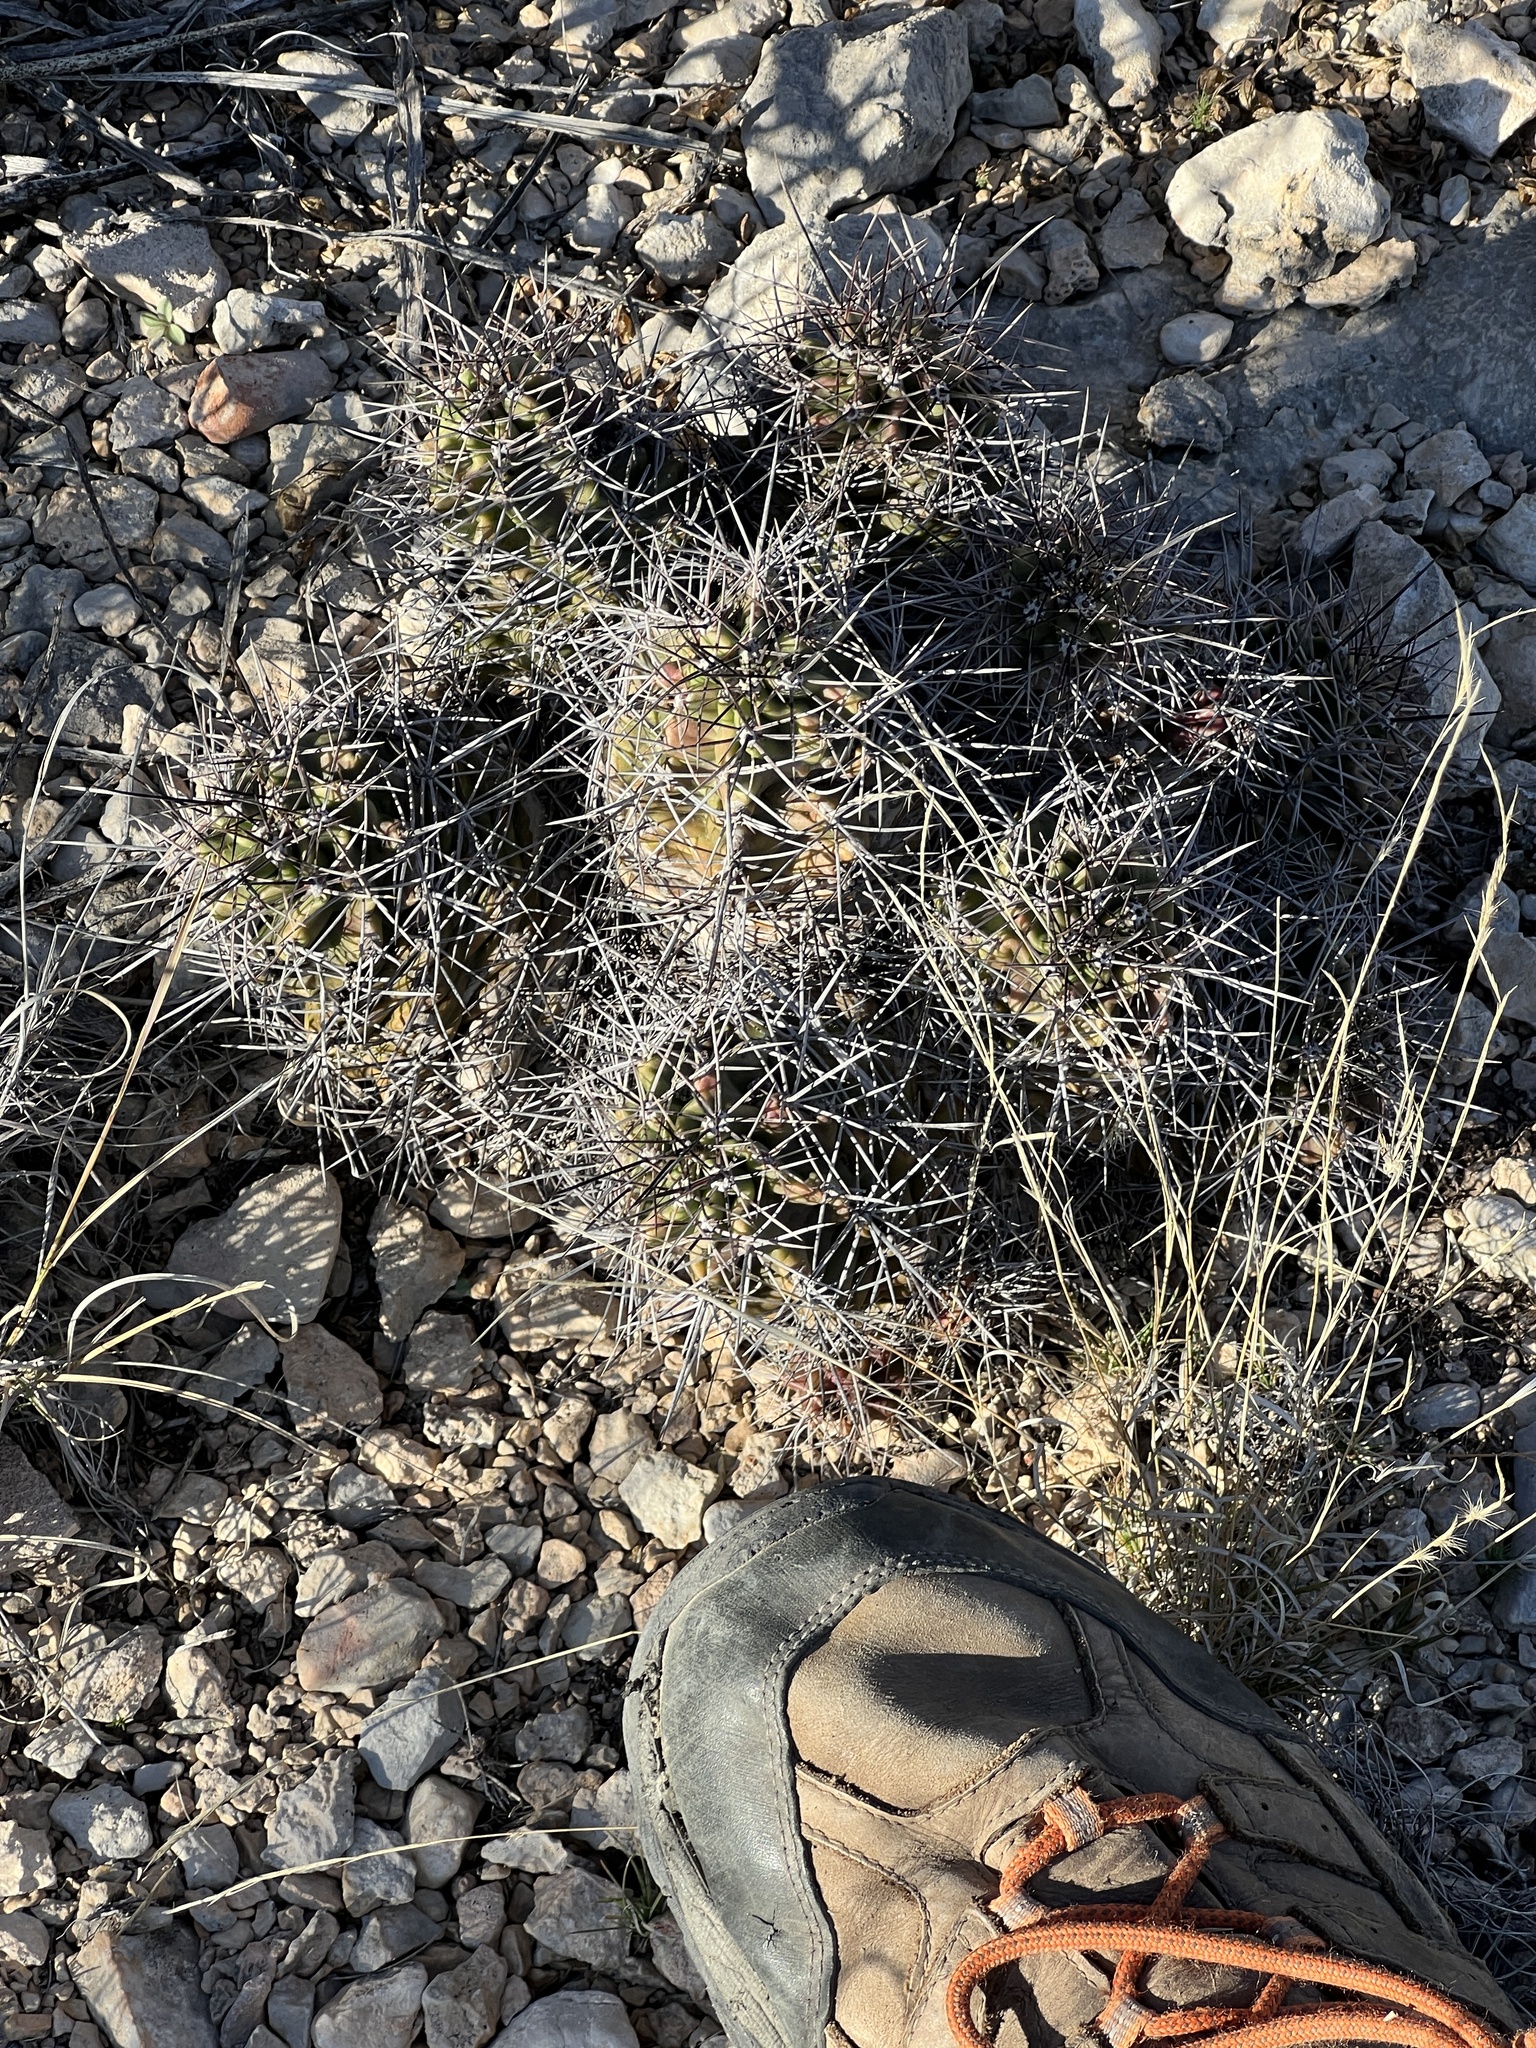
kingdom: Plantae
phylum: Tracheophyta
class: Magnoliopsida
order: Caryophyllales
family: Cactaceae
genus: Echinocereus
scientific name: Echinocereus coccineus
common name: Scarlet hedgehog cactus
